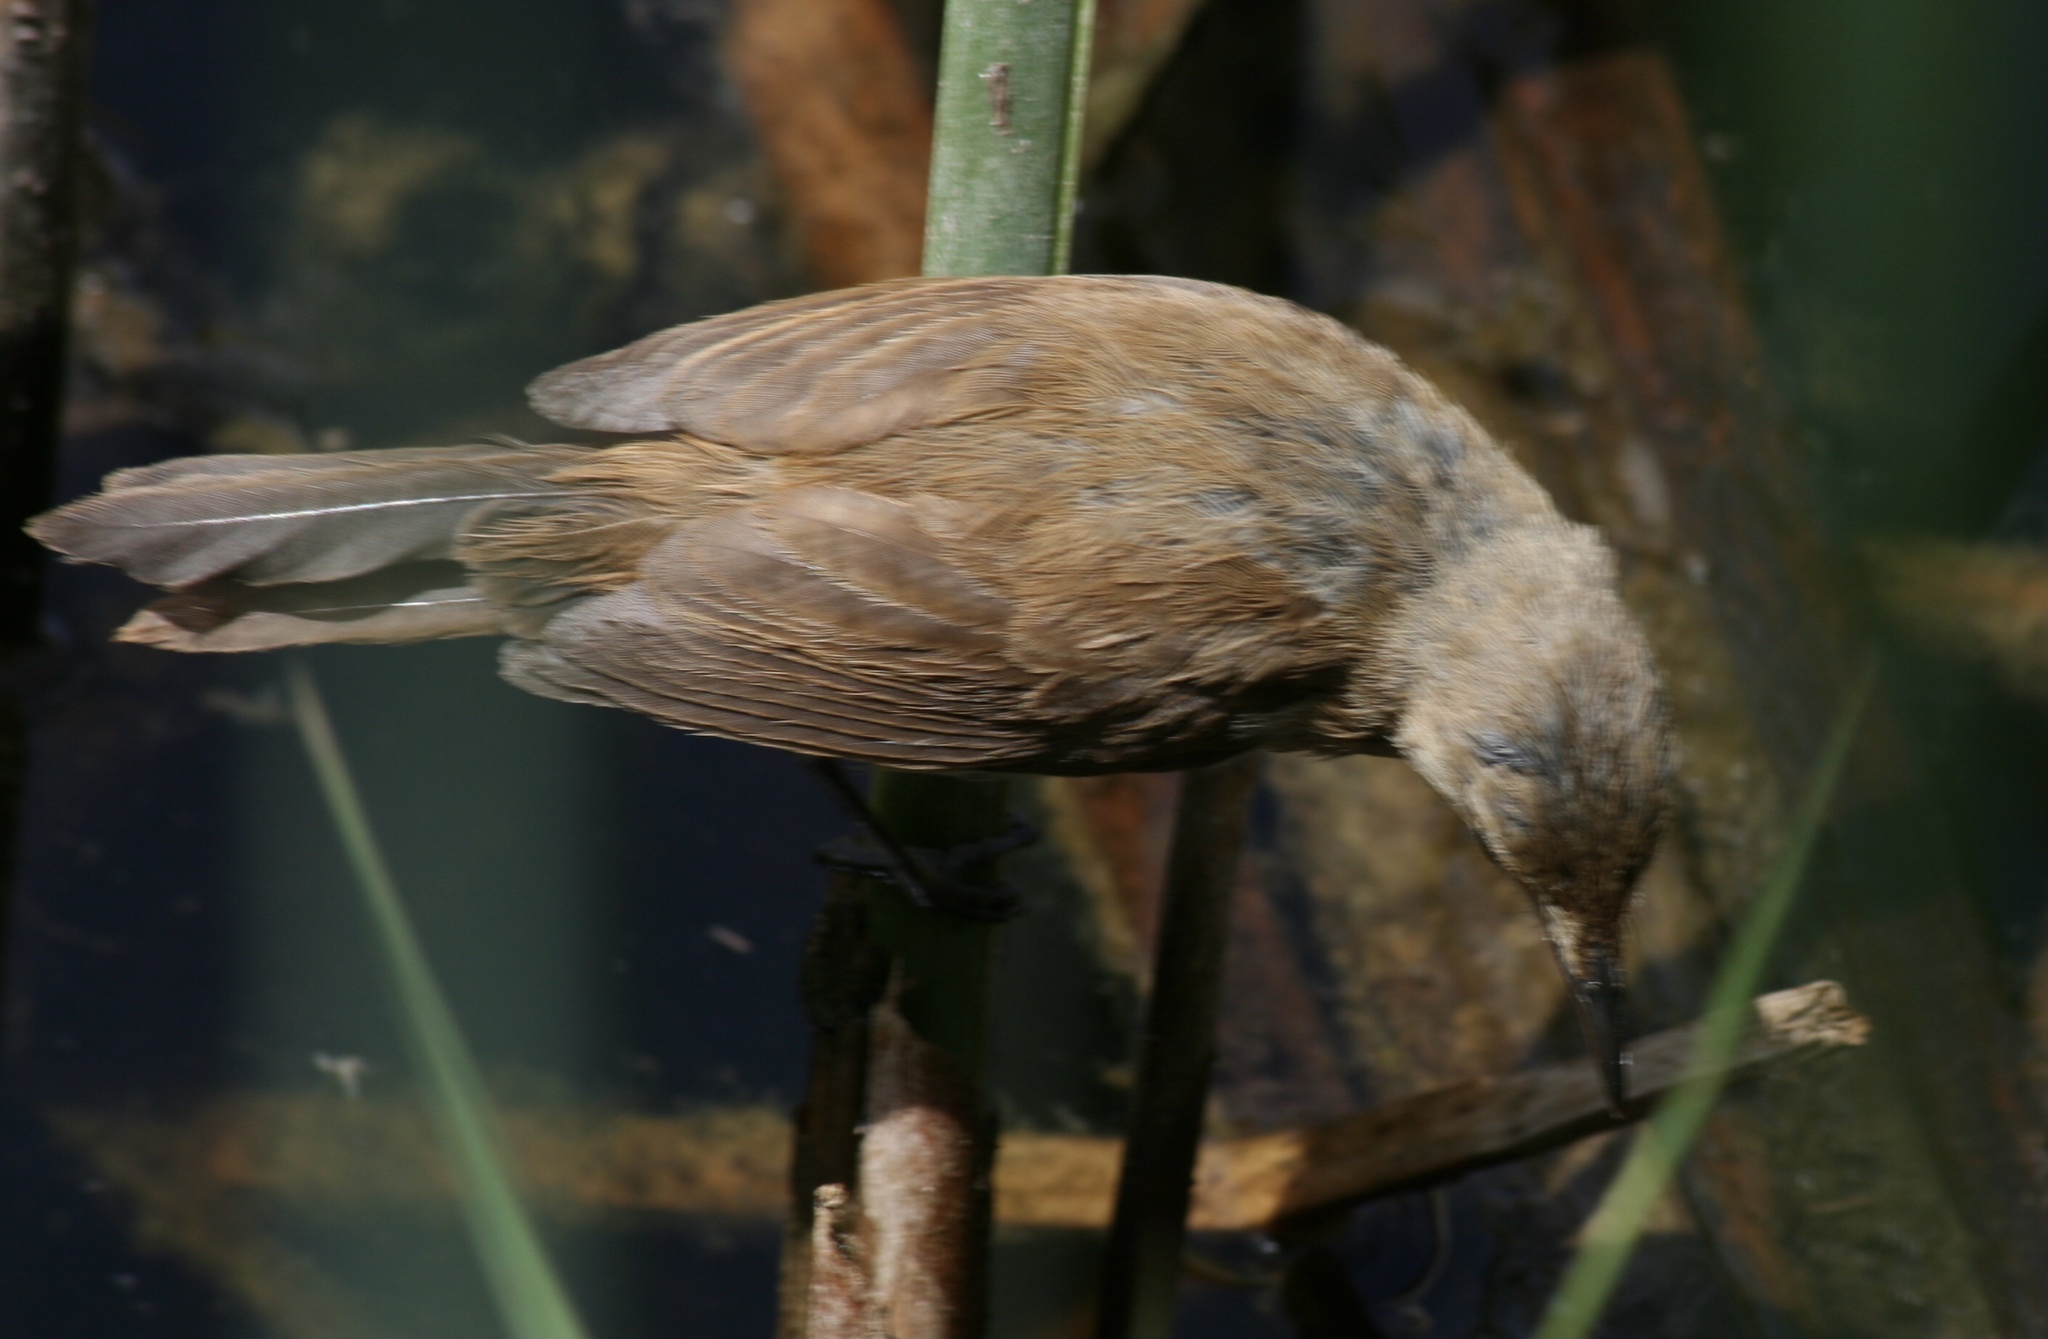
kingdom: Animalia
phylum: Chordata
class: Aves
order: Passeriformes
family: Acrocephalidae
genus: Acrocephalus
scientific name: Acrocephalus baeticatus
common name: African reed warbler
